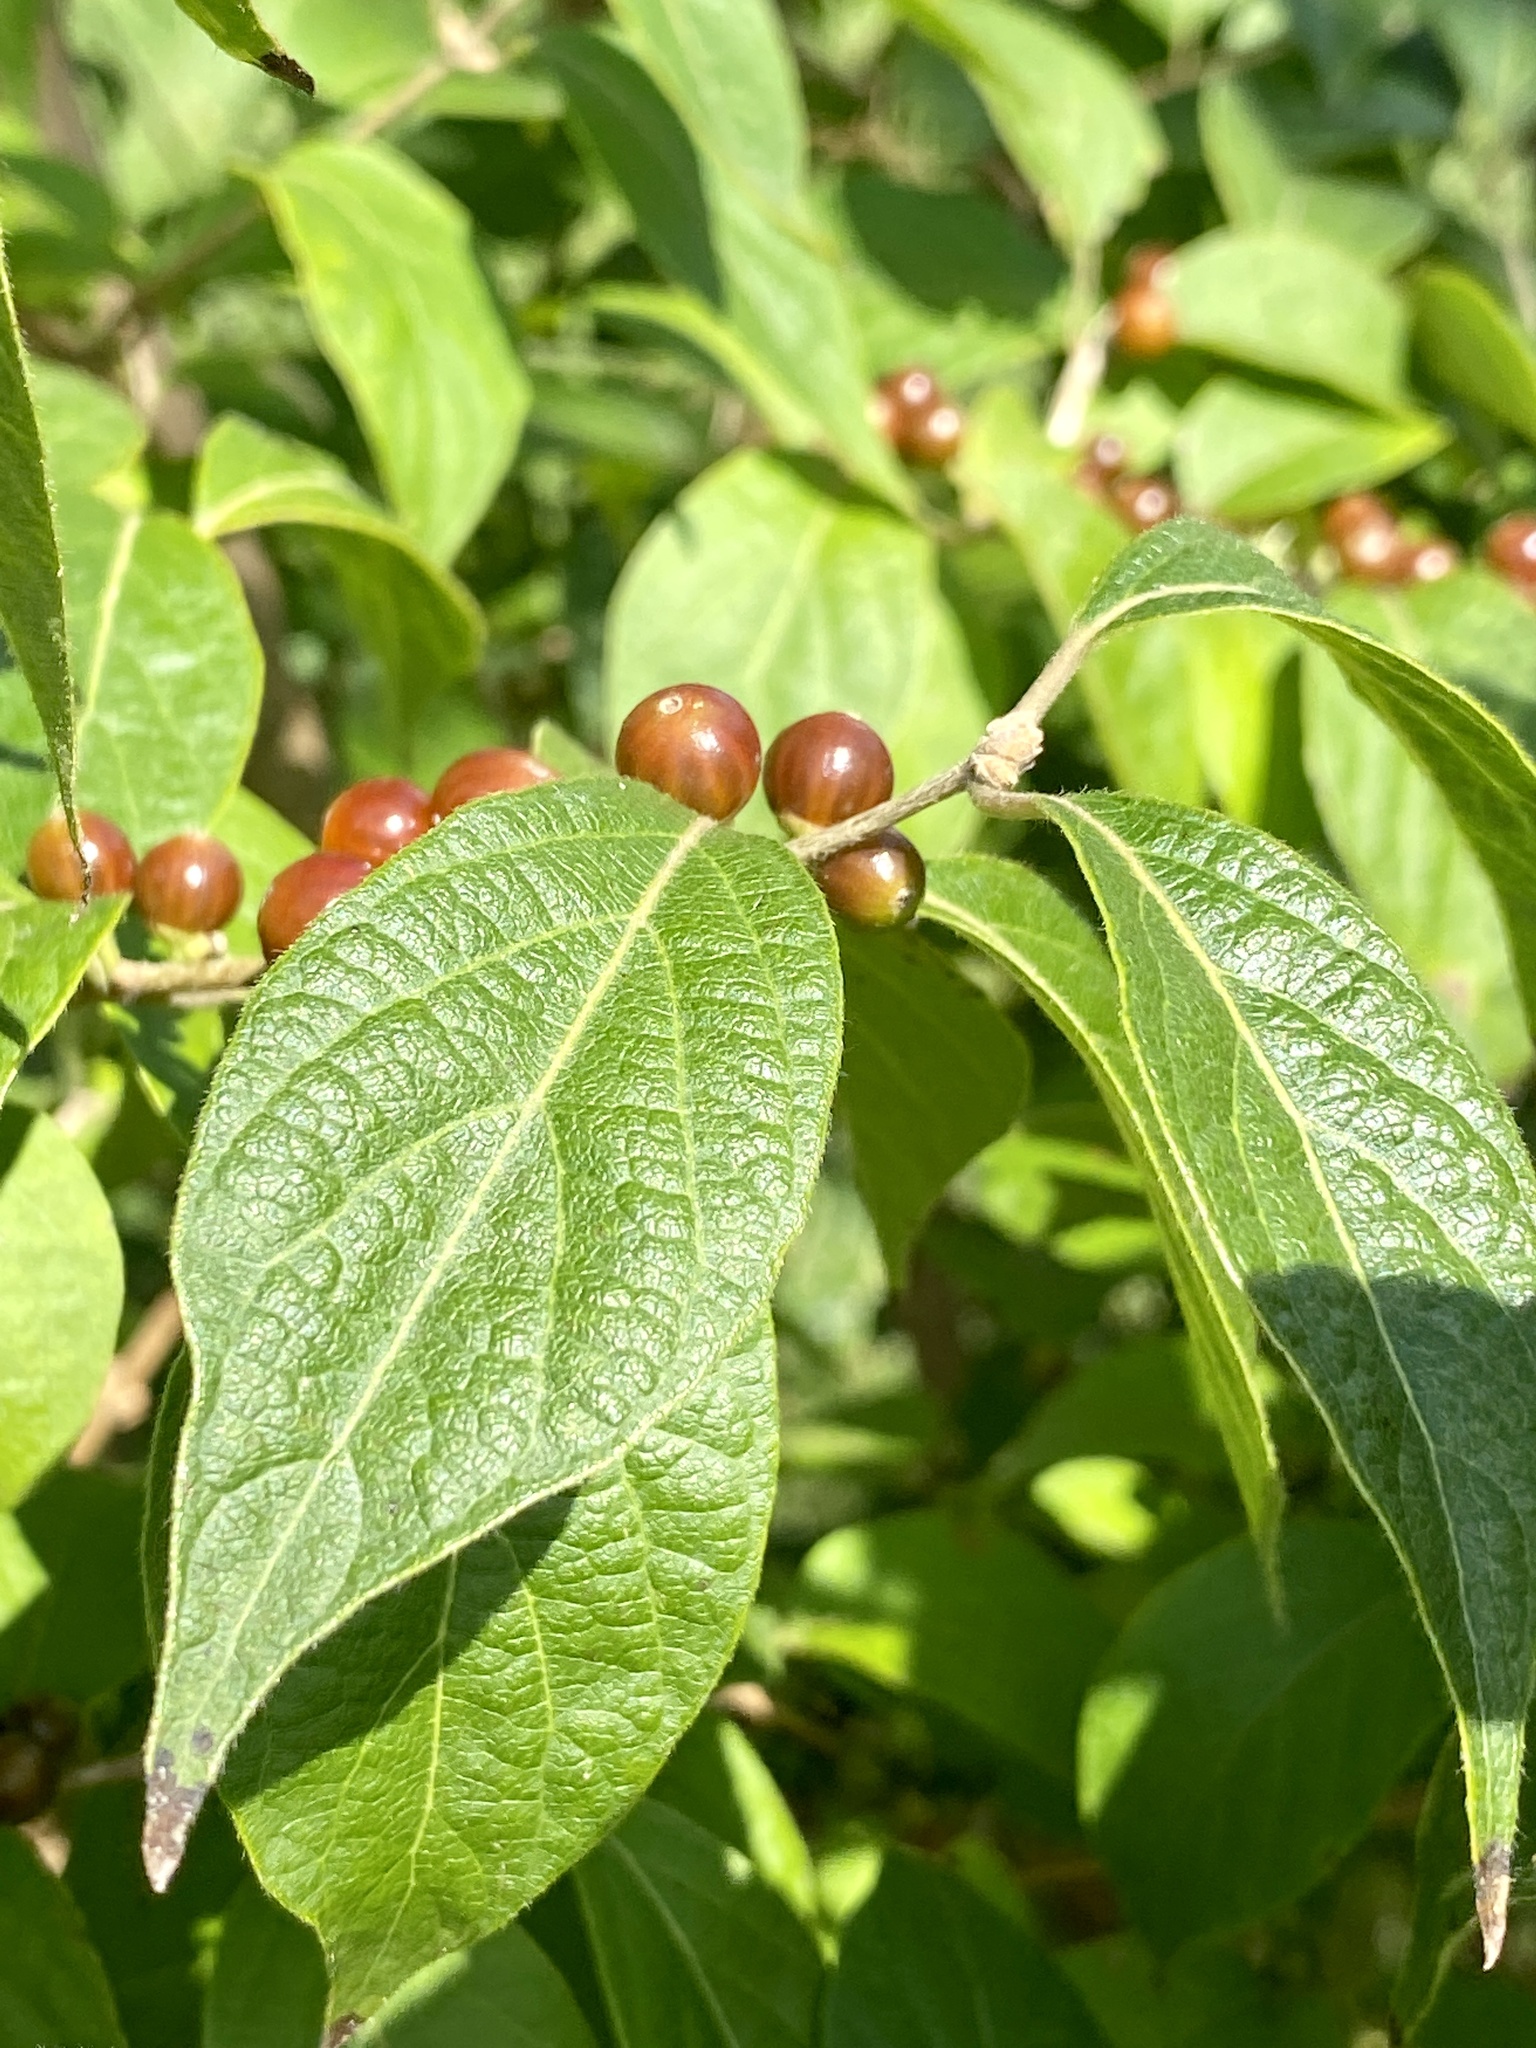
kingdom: Plantae
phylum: Tracheophyta
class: Magnoliopsida
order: Dipsacales
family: Caprifoliaceae
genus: Lonicera
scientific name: Lonicera maackii
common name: Amur honeysuckle
